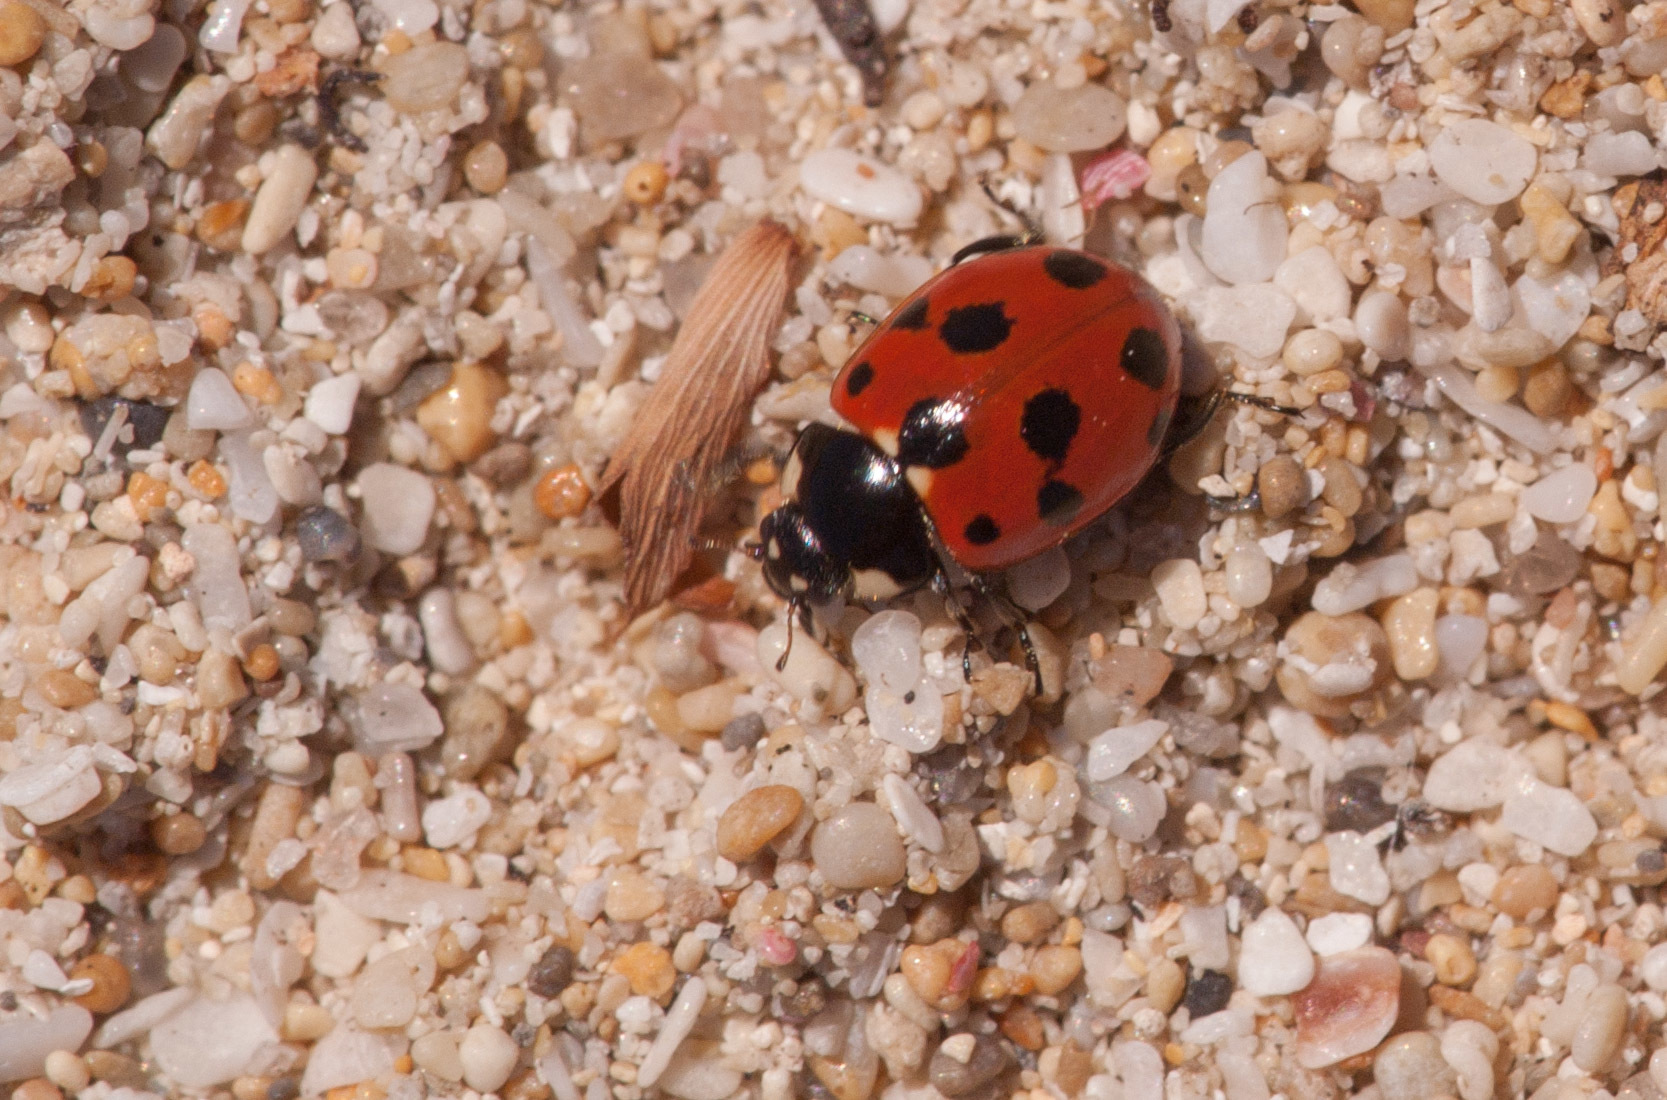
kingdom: Animalia
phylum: Arthropoda
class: Insecta
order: Coleoptera
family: Coccinellidae
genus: Coccinella
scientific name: Coccinella undecimpunctata
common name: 11-spot ladybird
